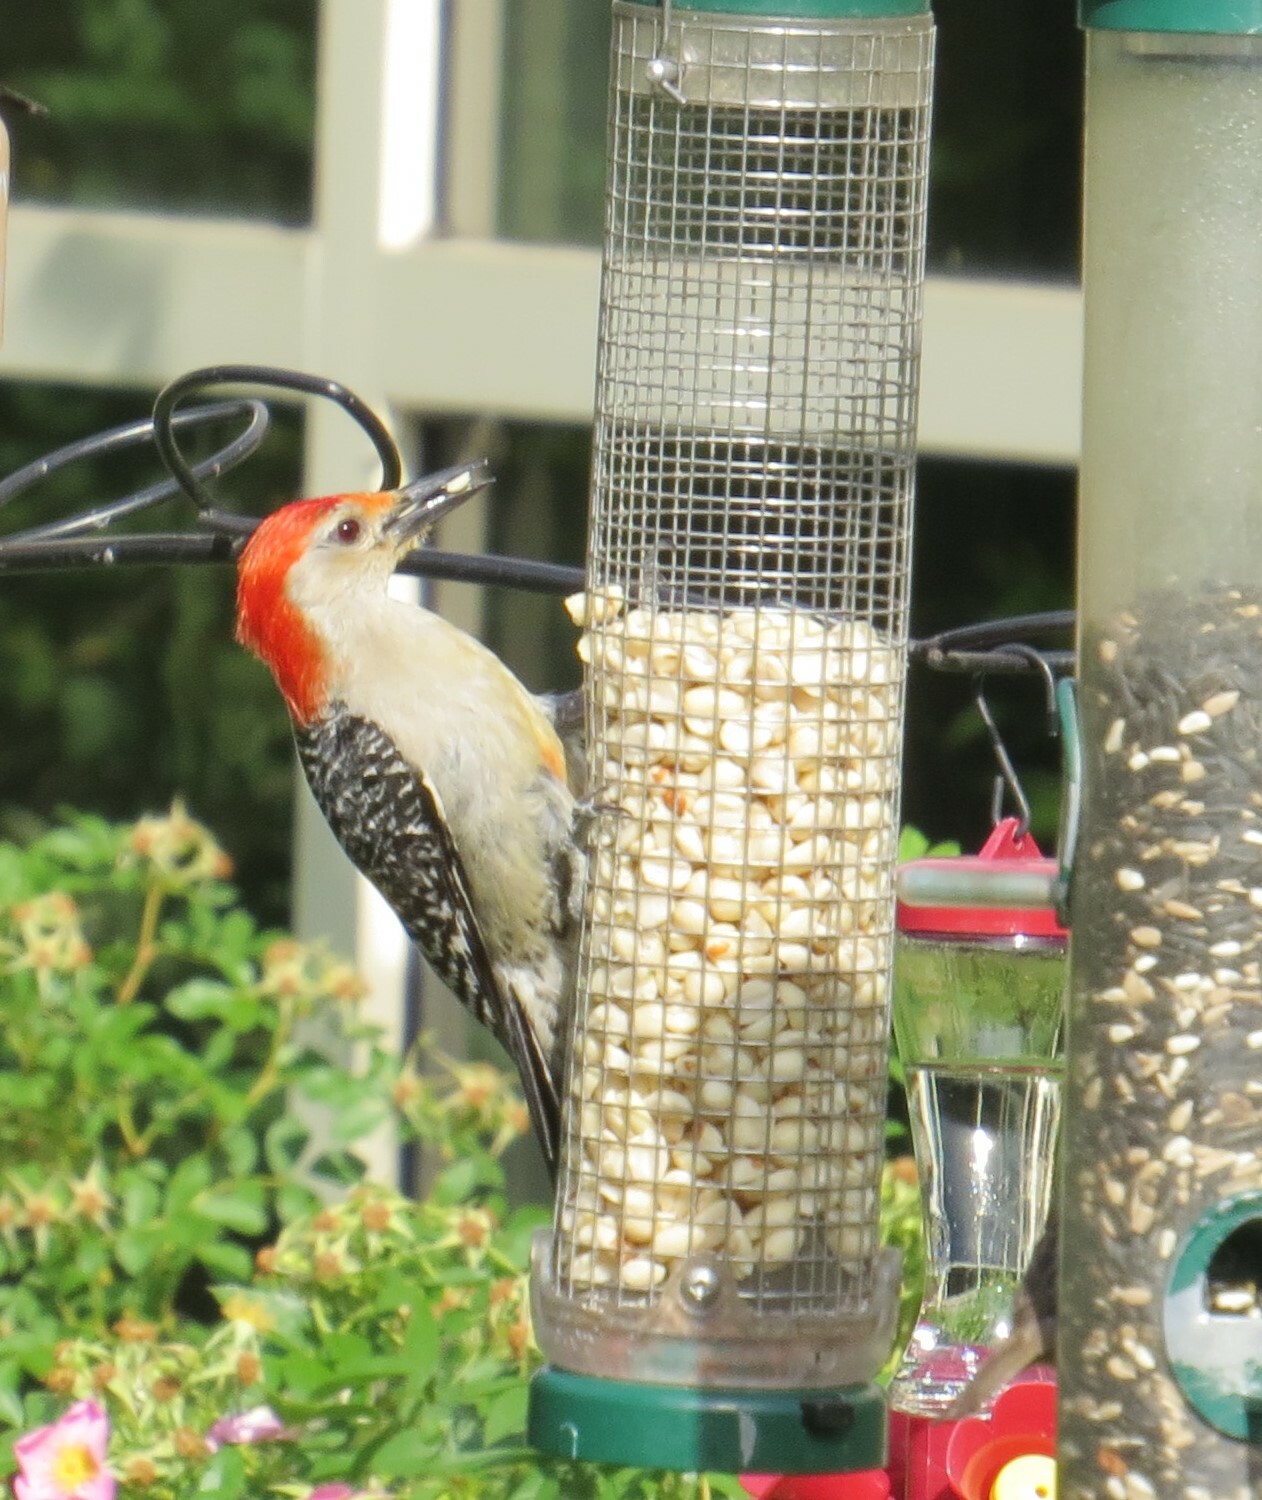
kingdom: Animalia
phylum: Chordata
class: Aves
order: Piciformes
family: Picidae
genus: Melanerpes
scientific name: Melanerpes carolinus
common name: Red-bellied woodpecker
